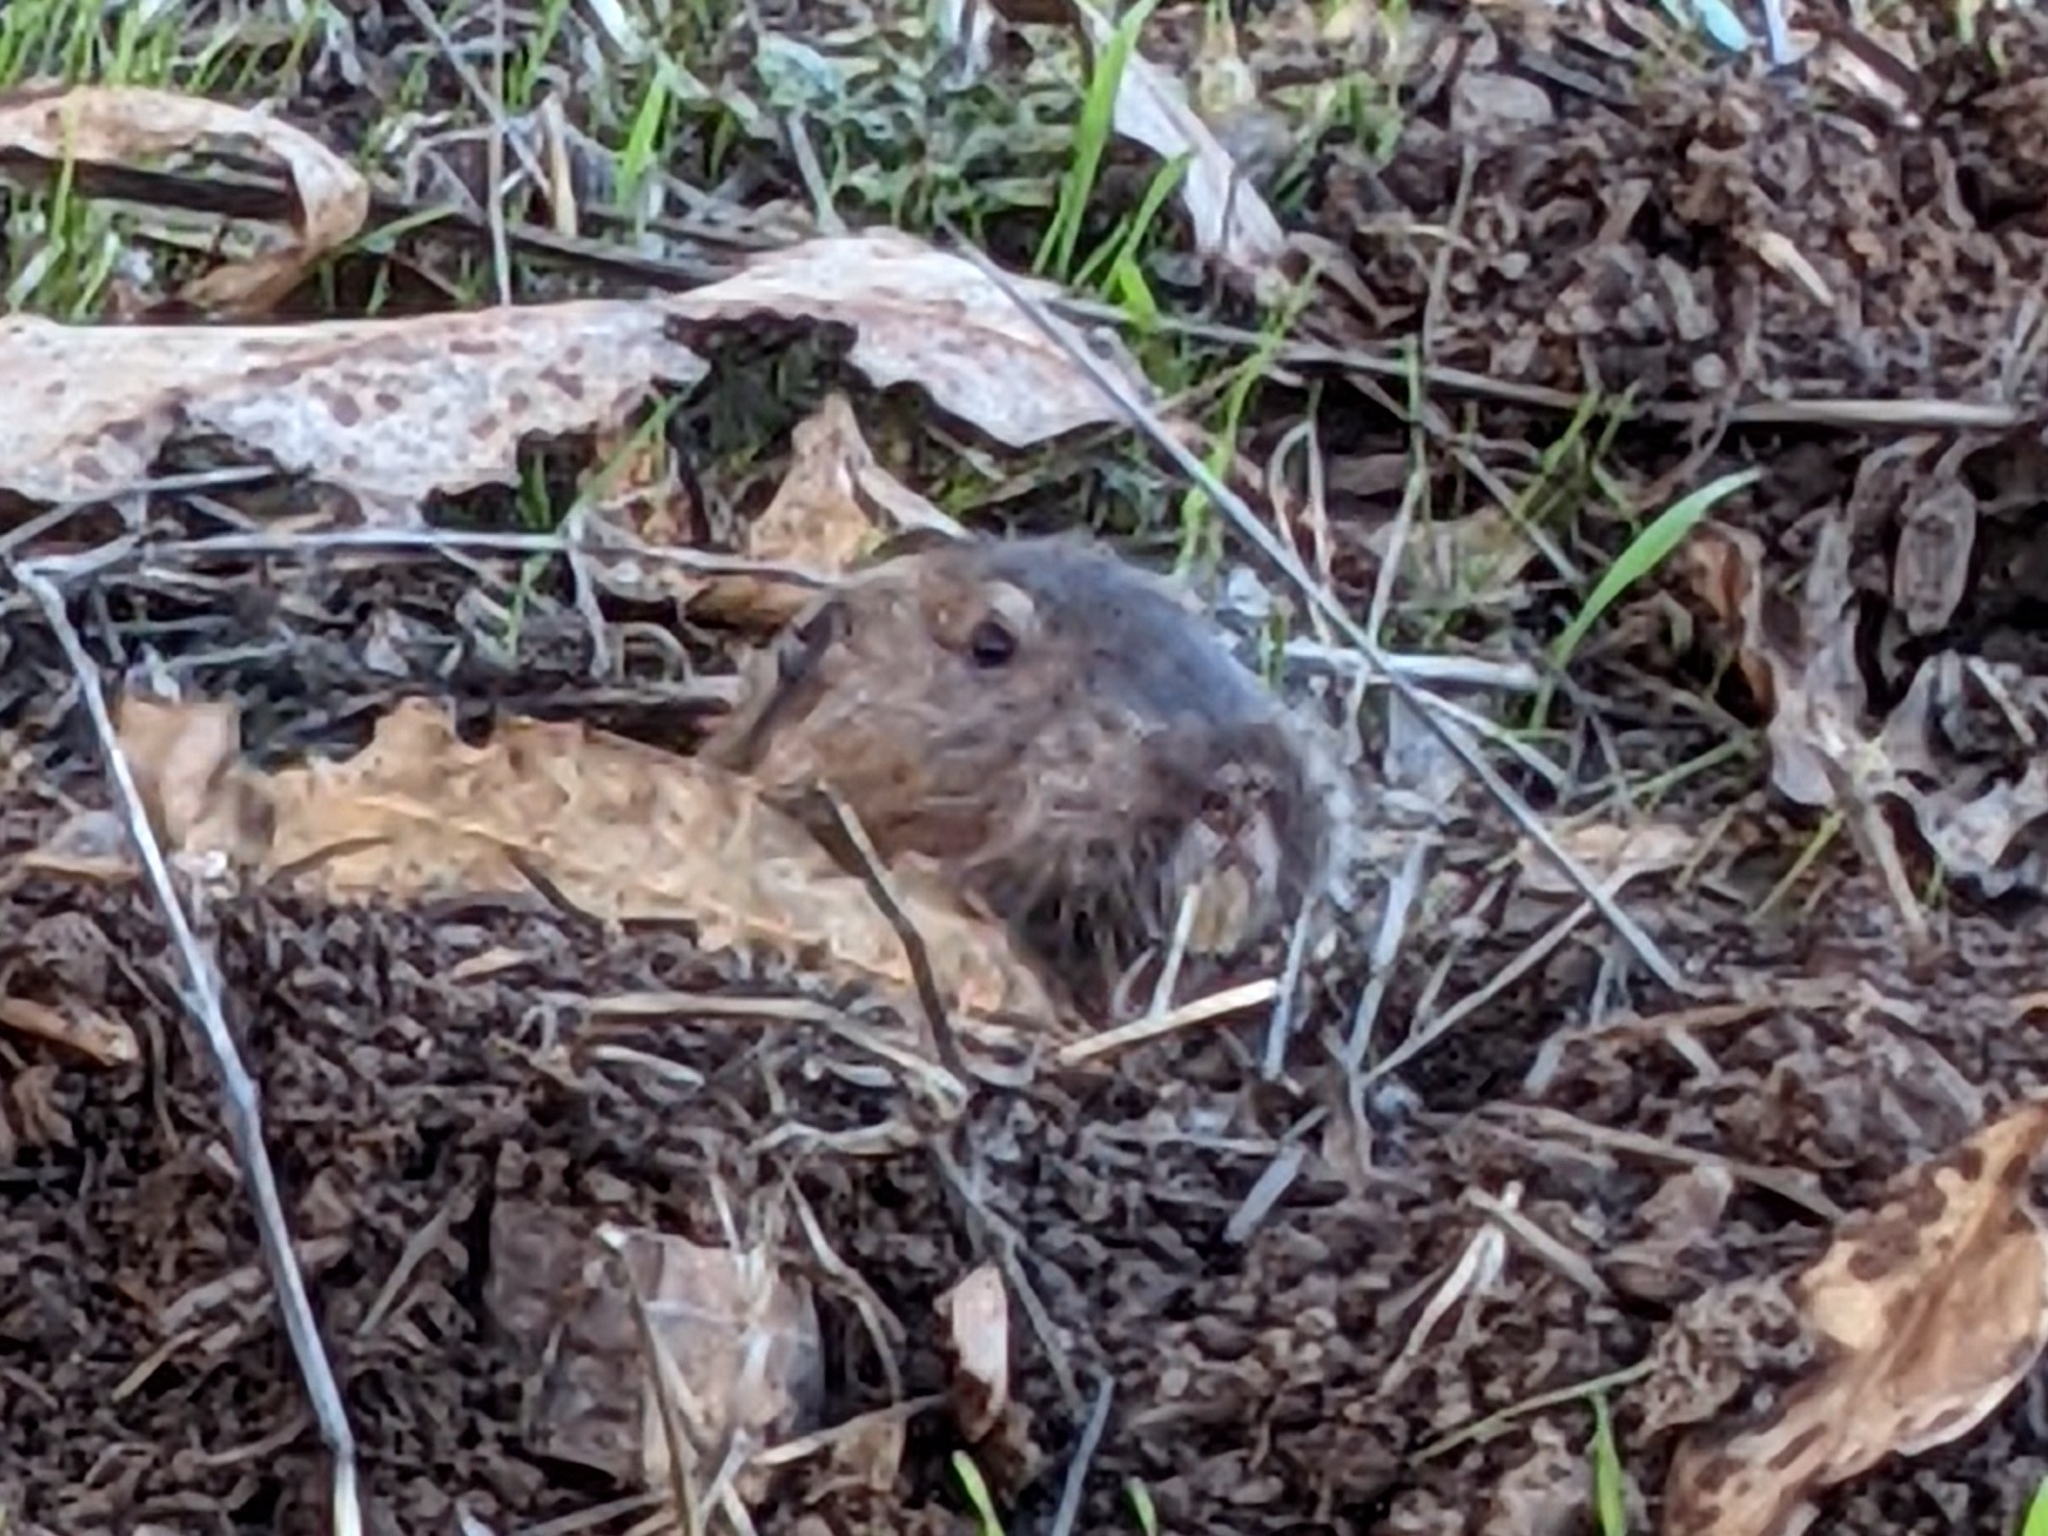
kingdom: Animalia
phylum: Chordata
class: Mammalia
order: Rodentia
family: Geomyidae
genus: Thomomys
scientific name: Thomomys bottae
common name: Botta's pocket gopher
